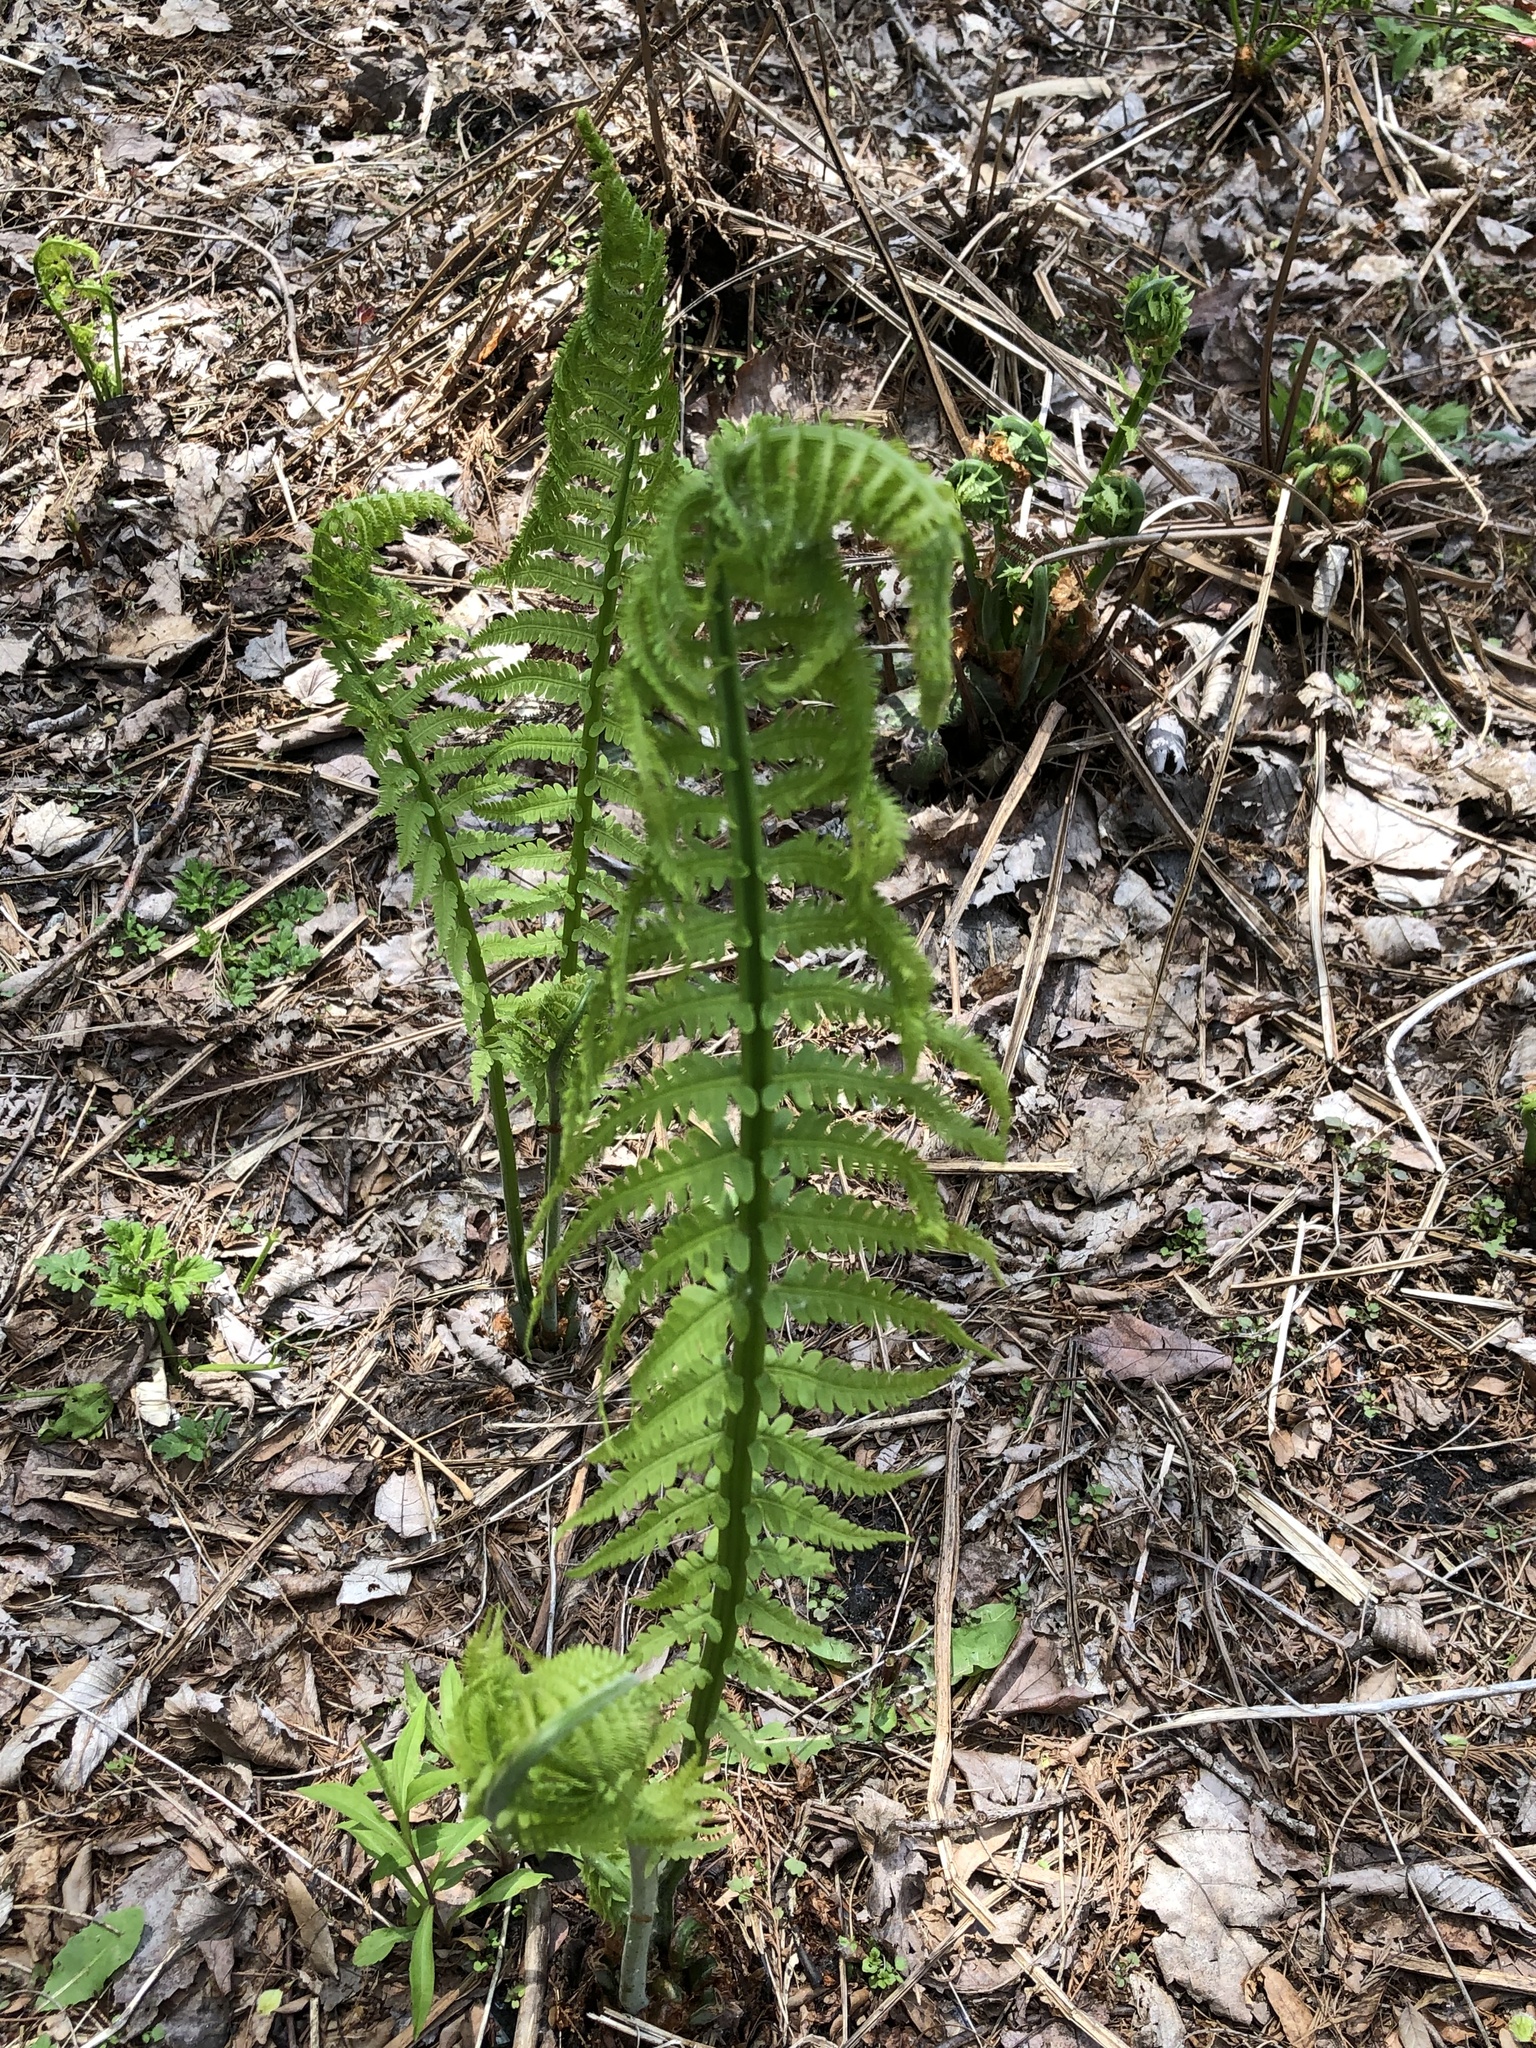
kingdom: Plantae
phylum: Tracheophyta
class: Polypodiopsida
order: Polypodiales
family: Onocleaceae
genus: Matteuccia
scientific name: Matteuccia struthiopteris
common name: Ostrich fern
